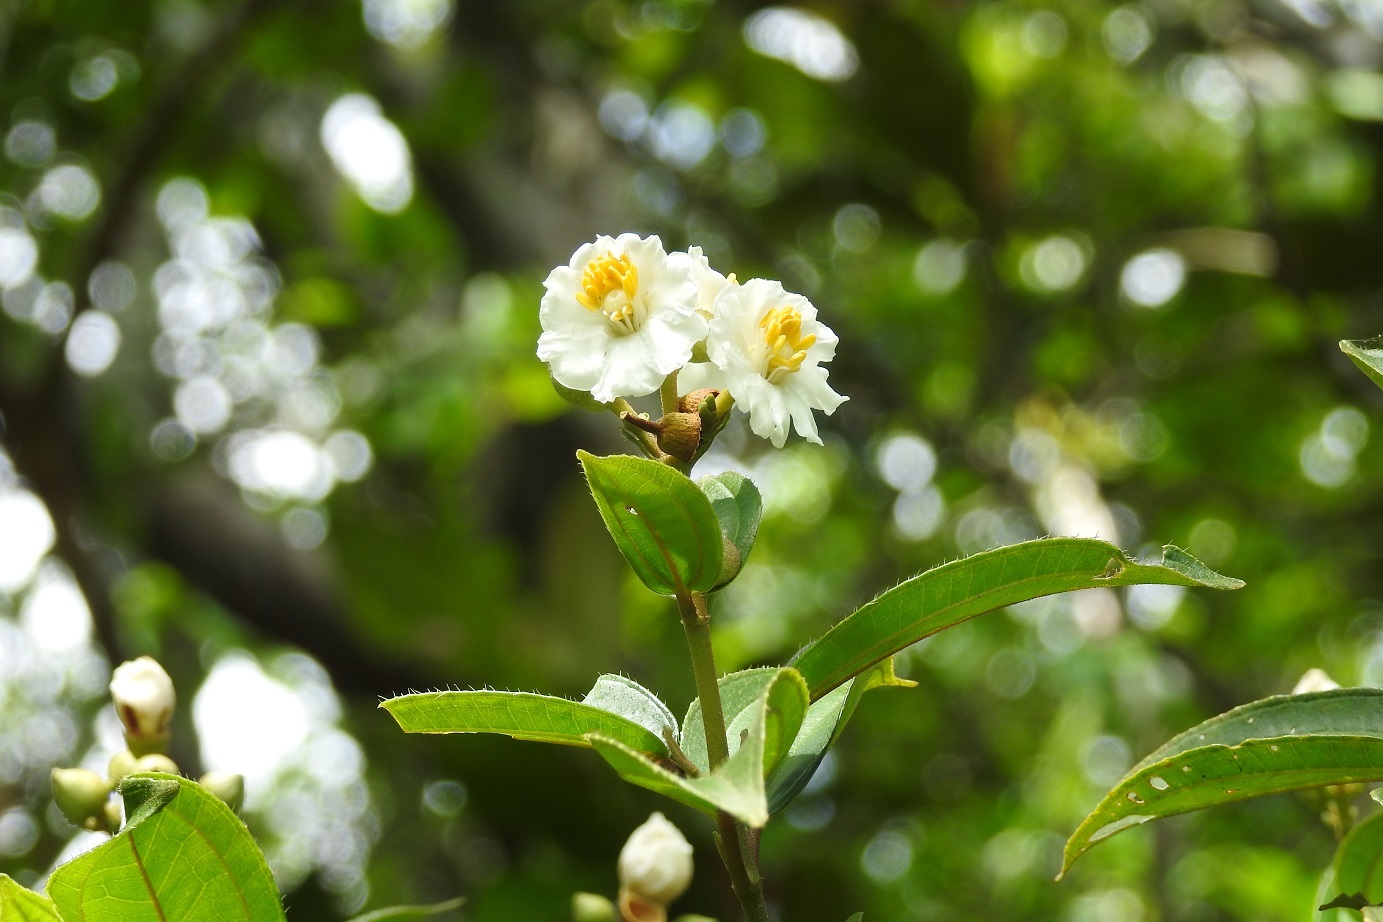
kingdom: Plantae
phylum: Tracheophyta
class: Magnoliopsida
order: Myrtales
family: Melastomataceae
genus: Miconia
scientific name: Miconia subhirsuta
